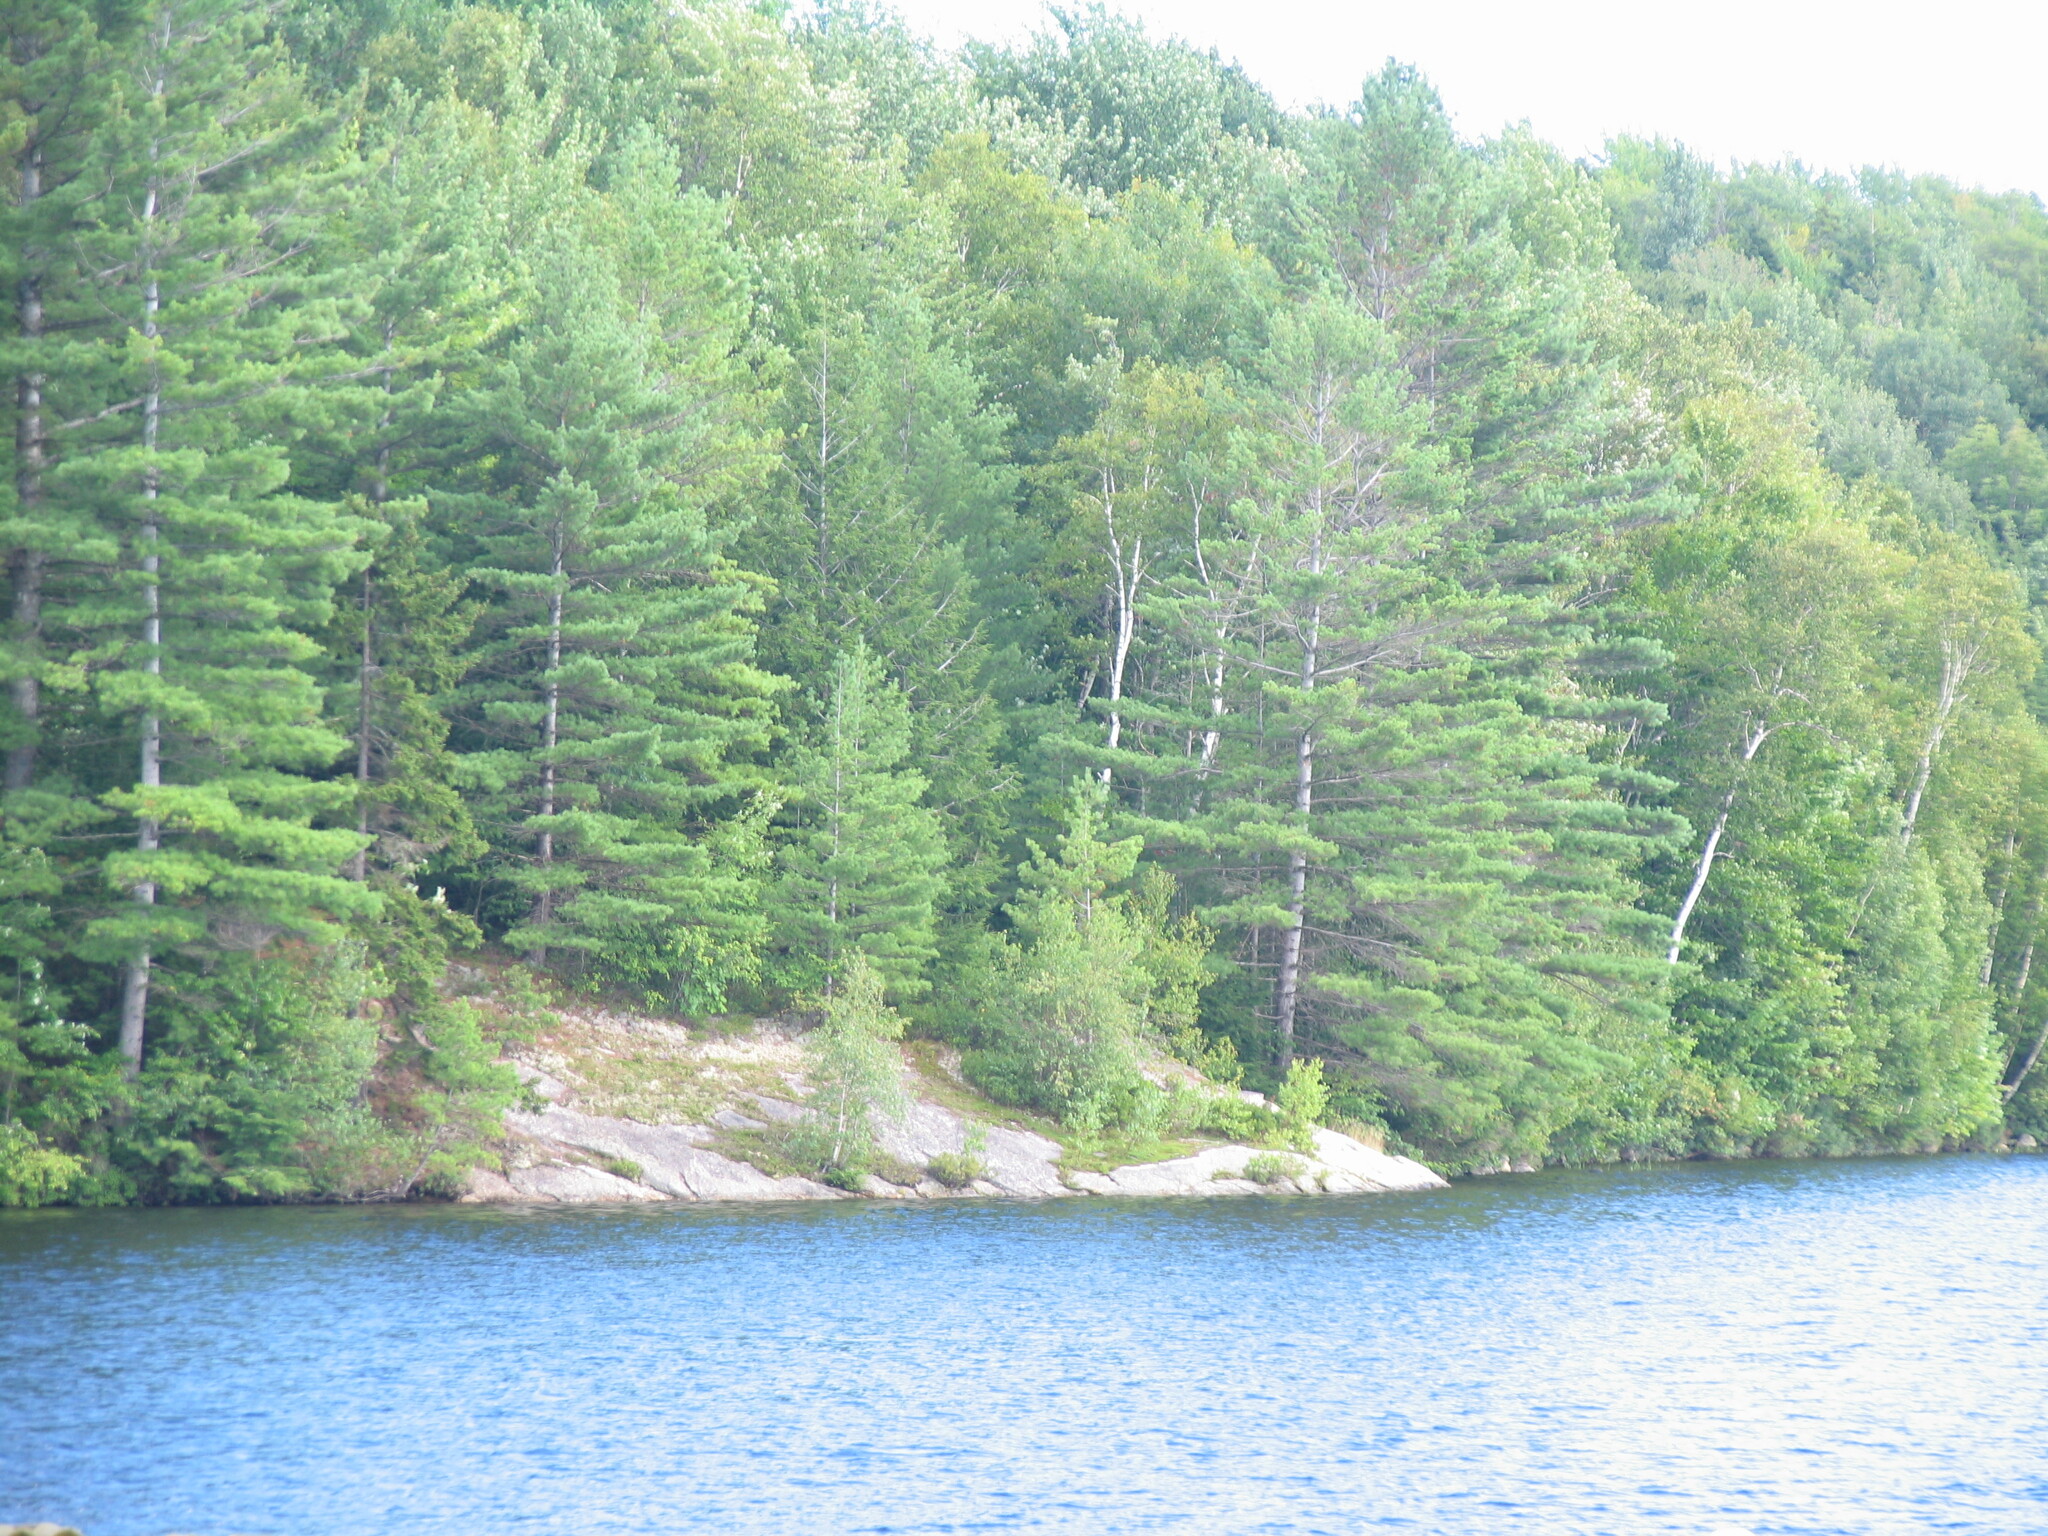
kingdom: Plantae
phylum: Tracheophyta
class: Pinopsida
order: Pinales
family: Pinaceae
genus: Pinus
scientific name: Pinus strobus
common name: Weymouth pine
